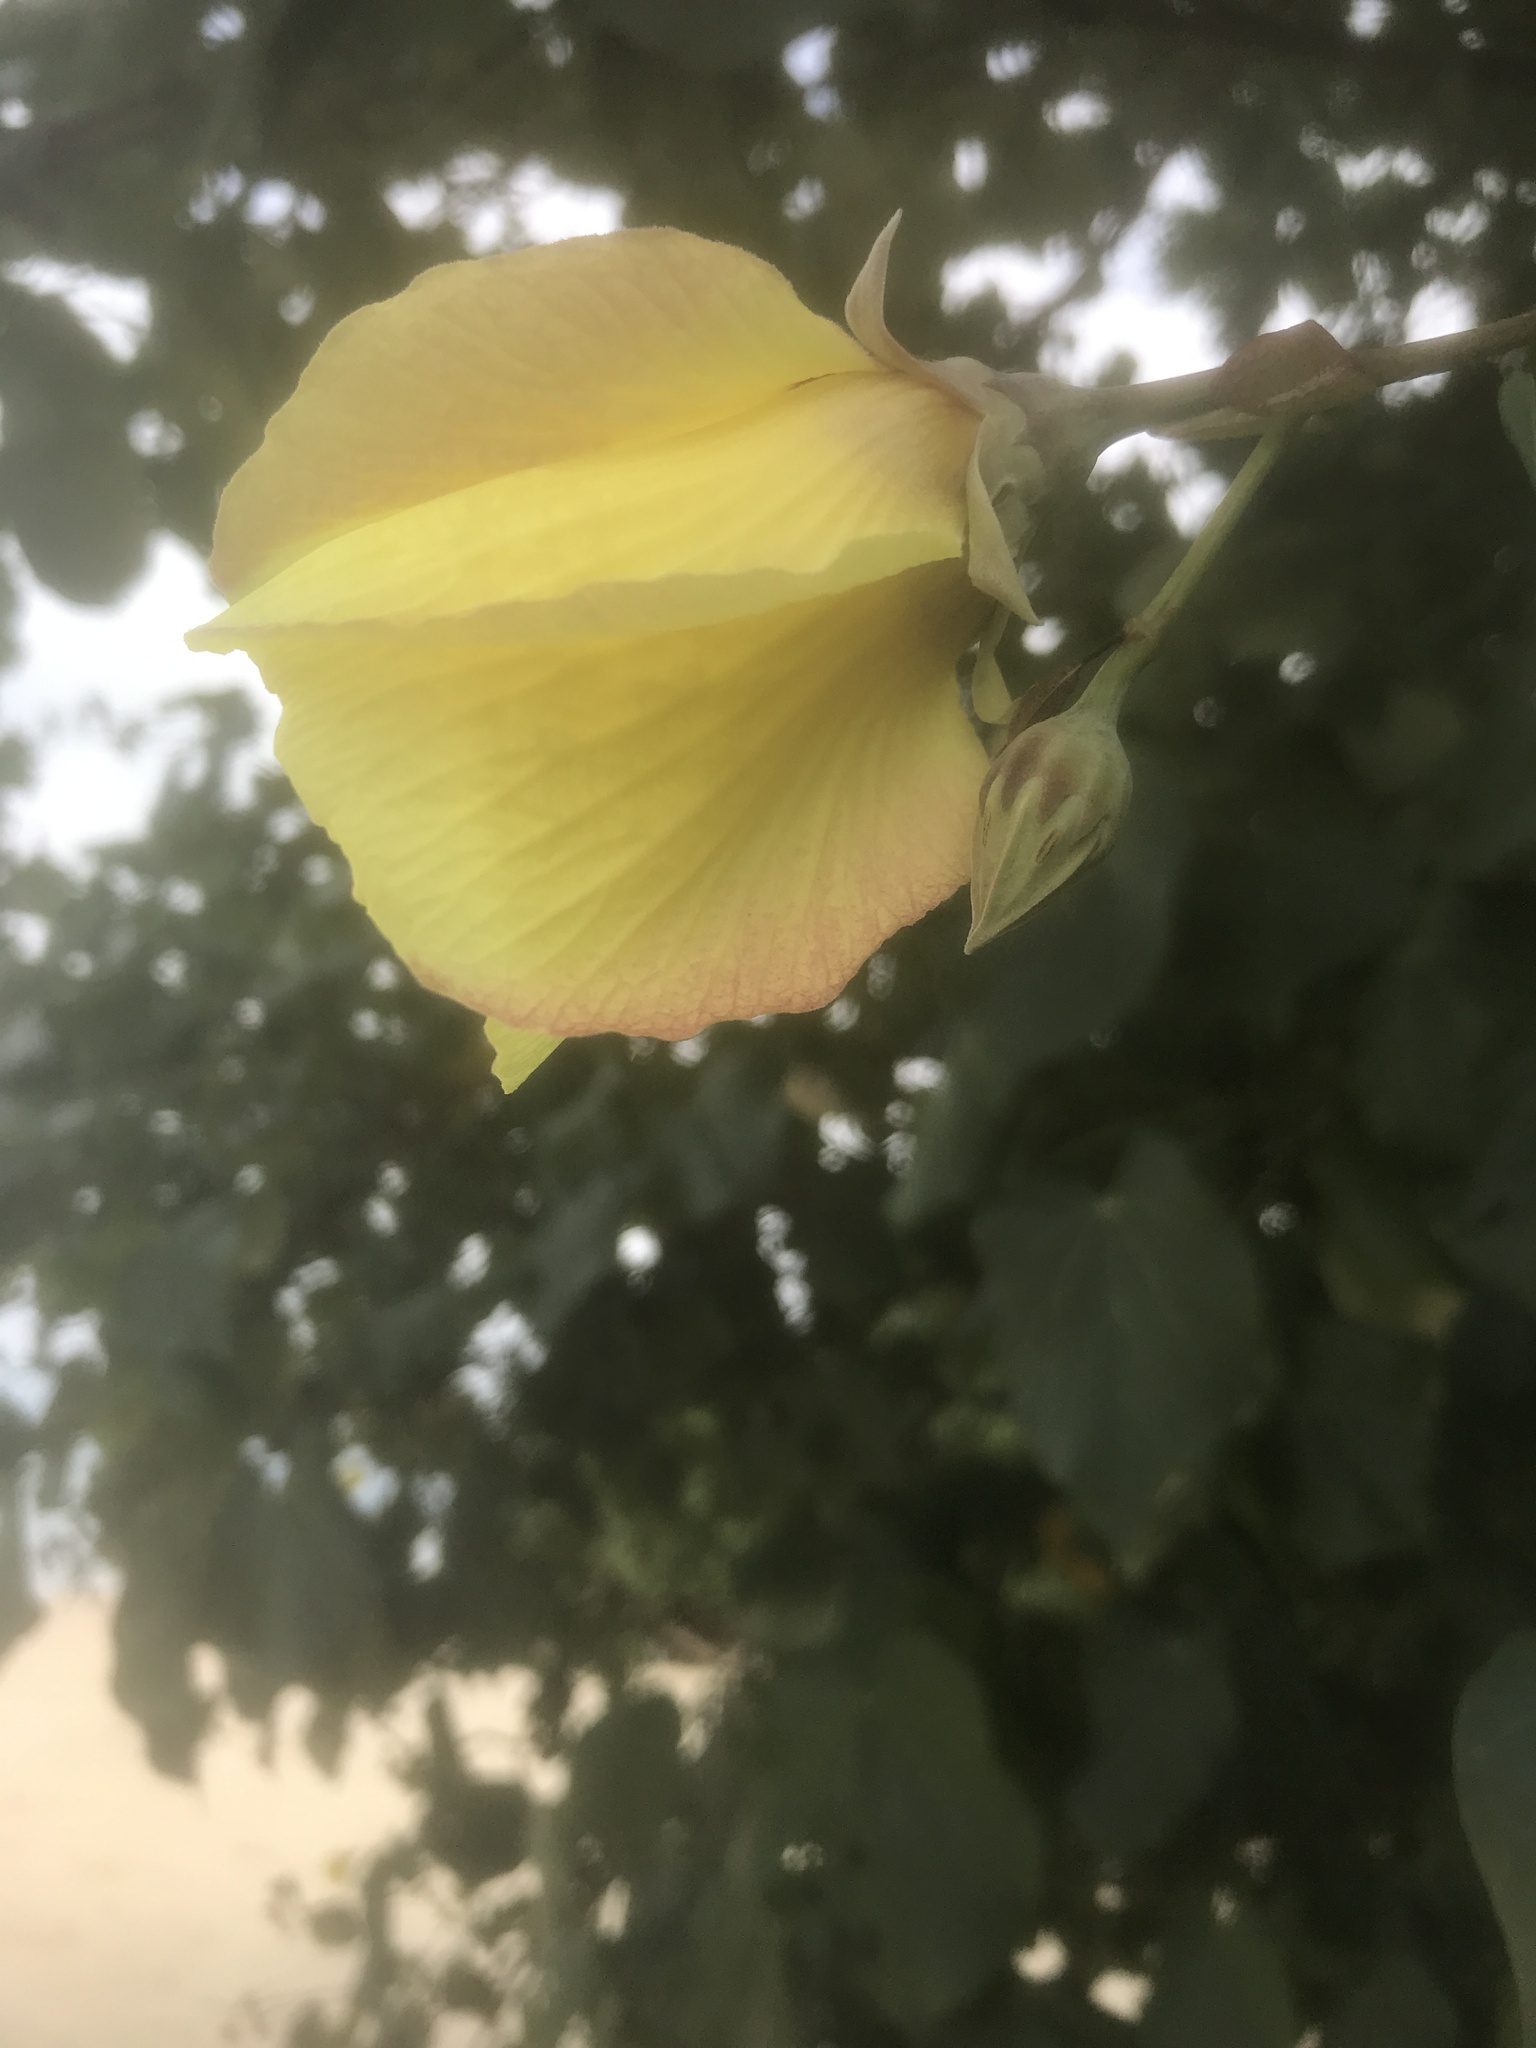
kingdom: Plantae
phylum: Tracheophyta
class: Magnoliopsida
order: Malvales
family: Malvaceae
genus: Talipariti
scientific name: Talipariti tiliaceum
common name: Sea hibiscus
